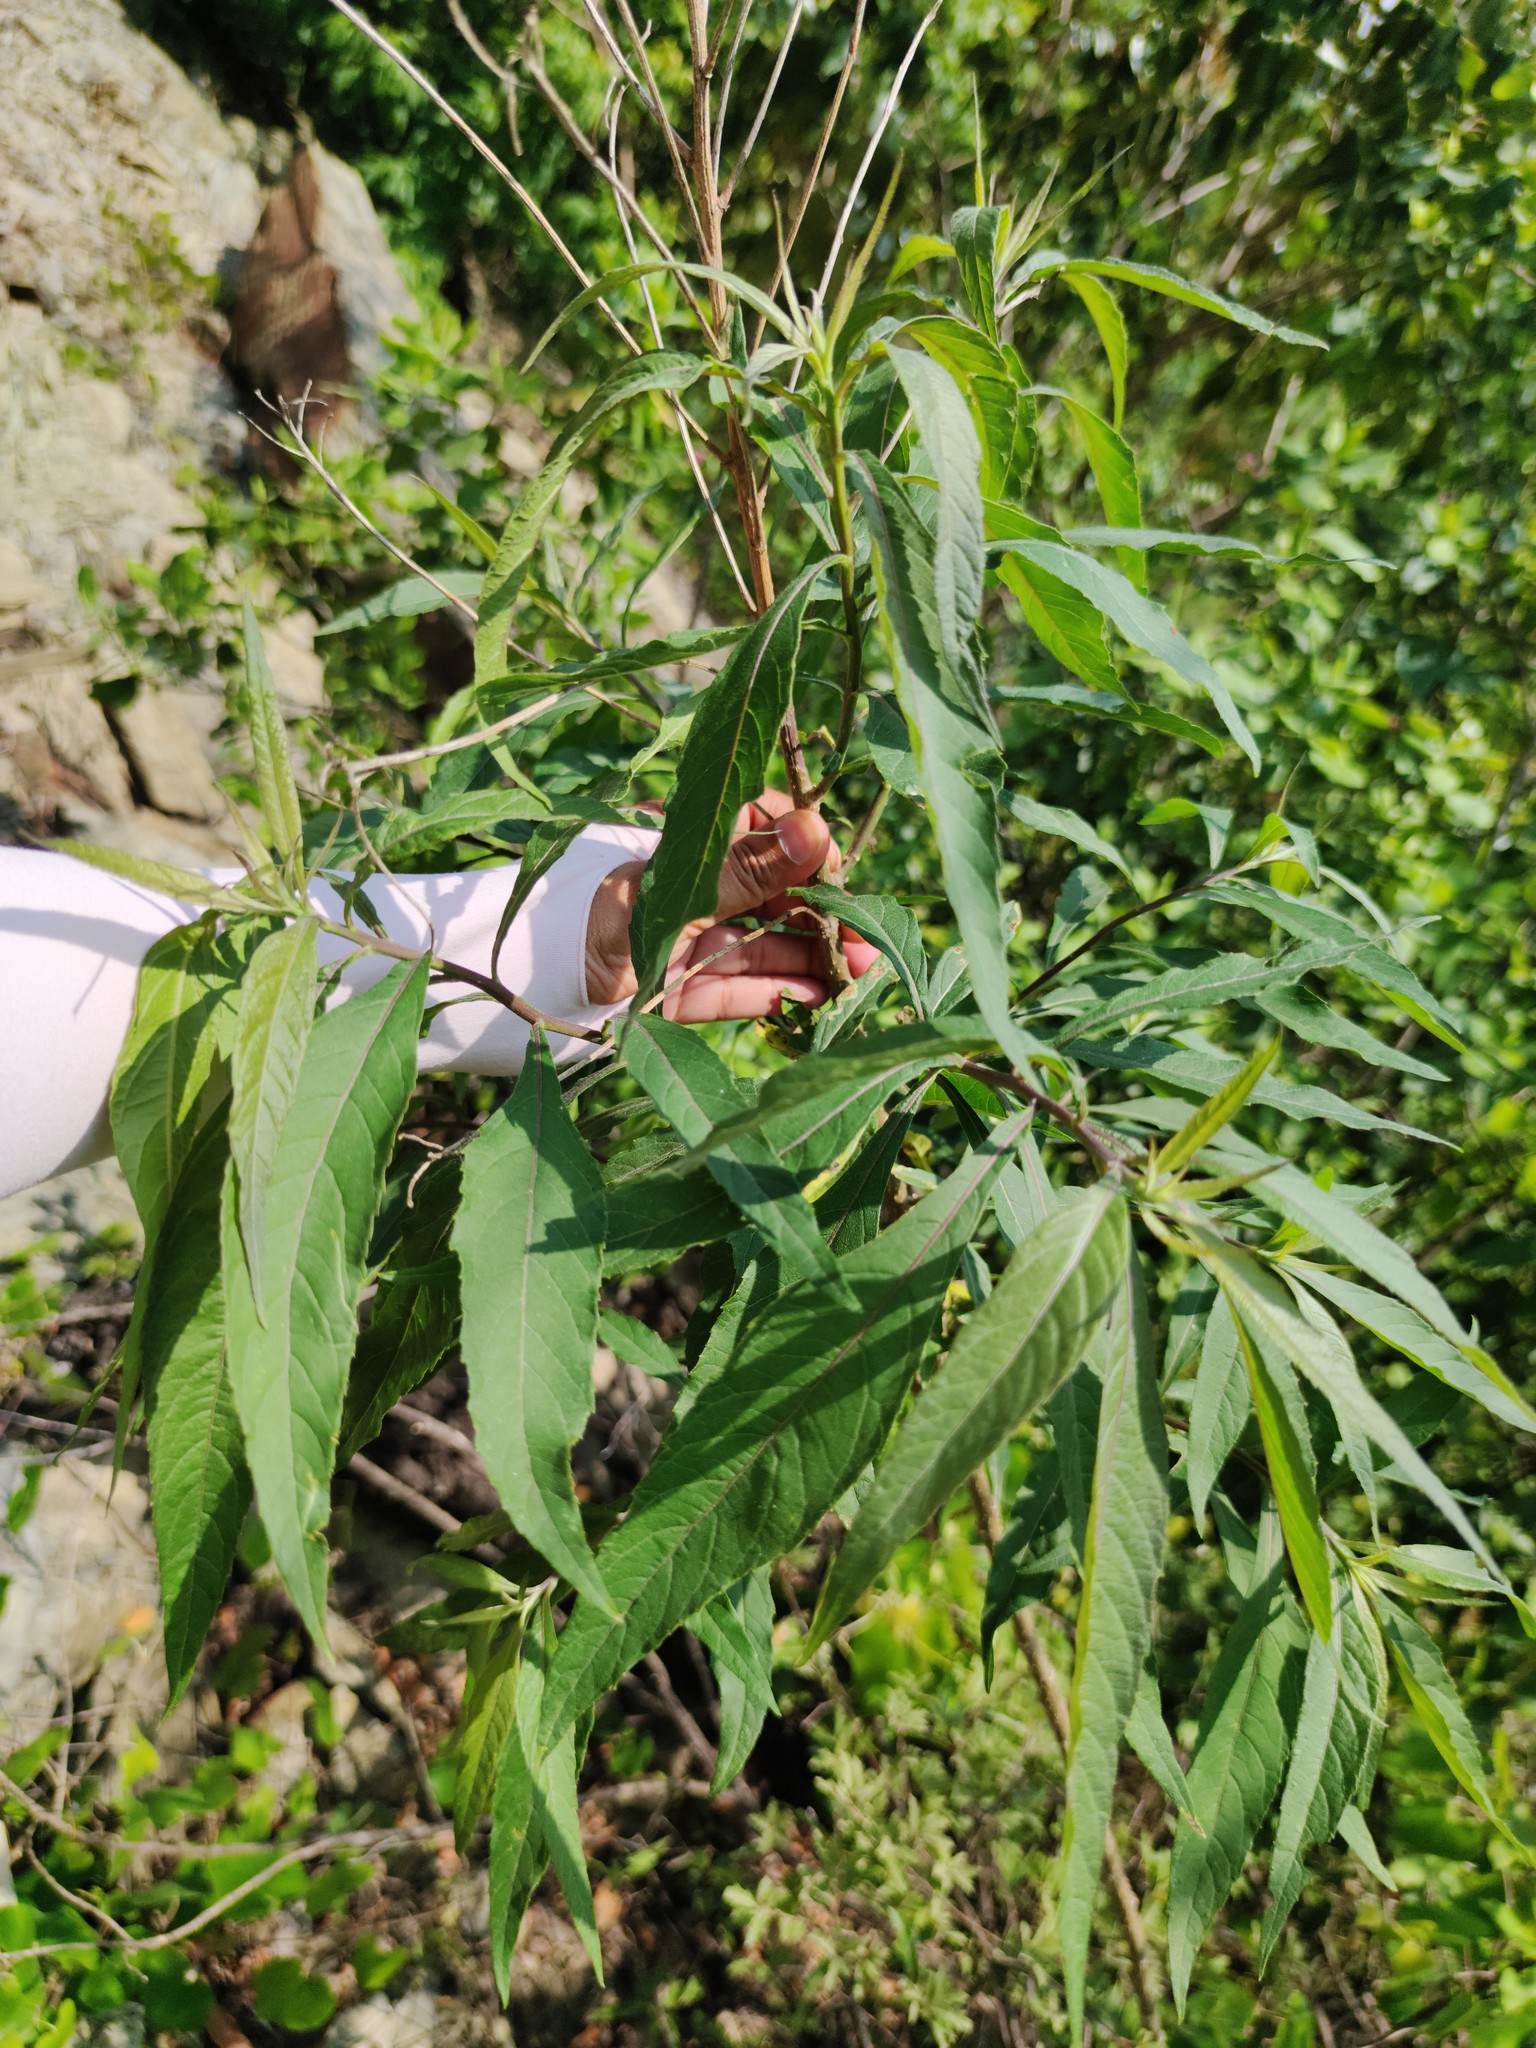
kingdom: Plantae
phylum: Tracheophyta
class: Magnoliopsida
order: Asterales
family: Asteraceae
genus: Verbesina
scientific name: Verbesina persicifolia
